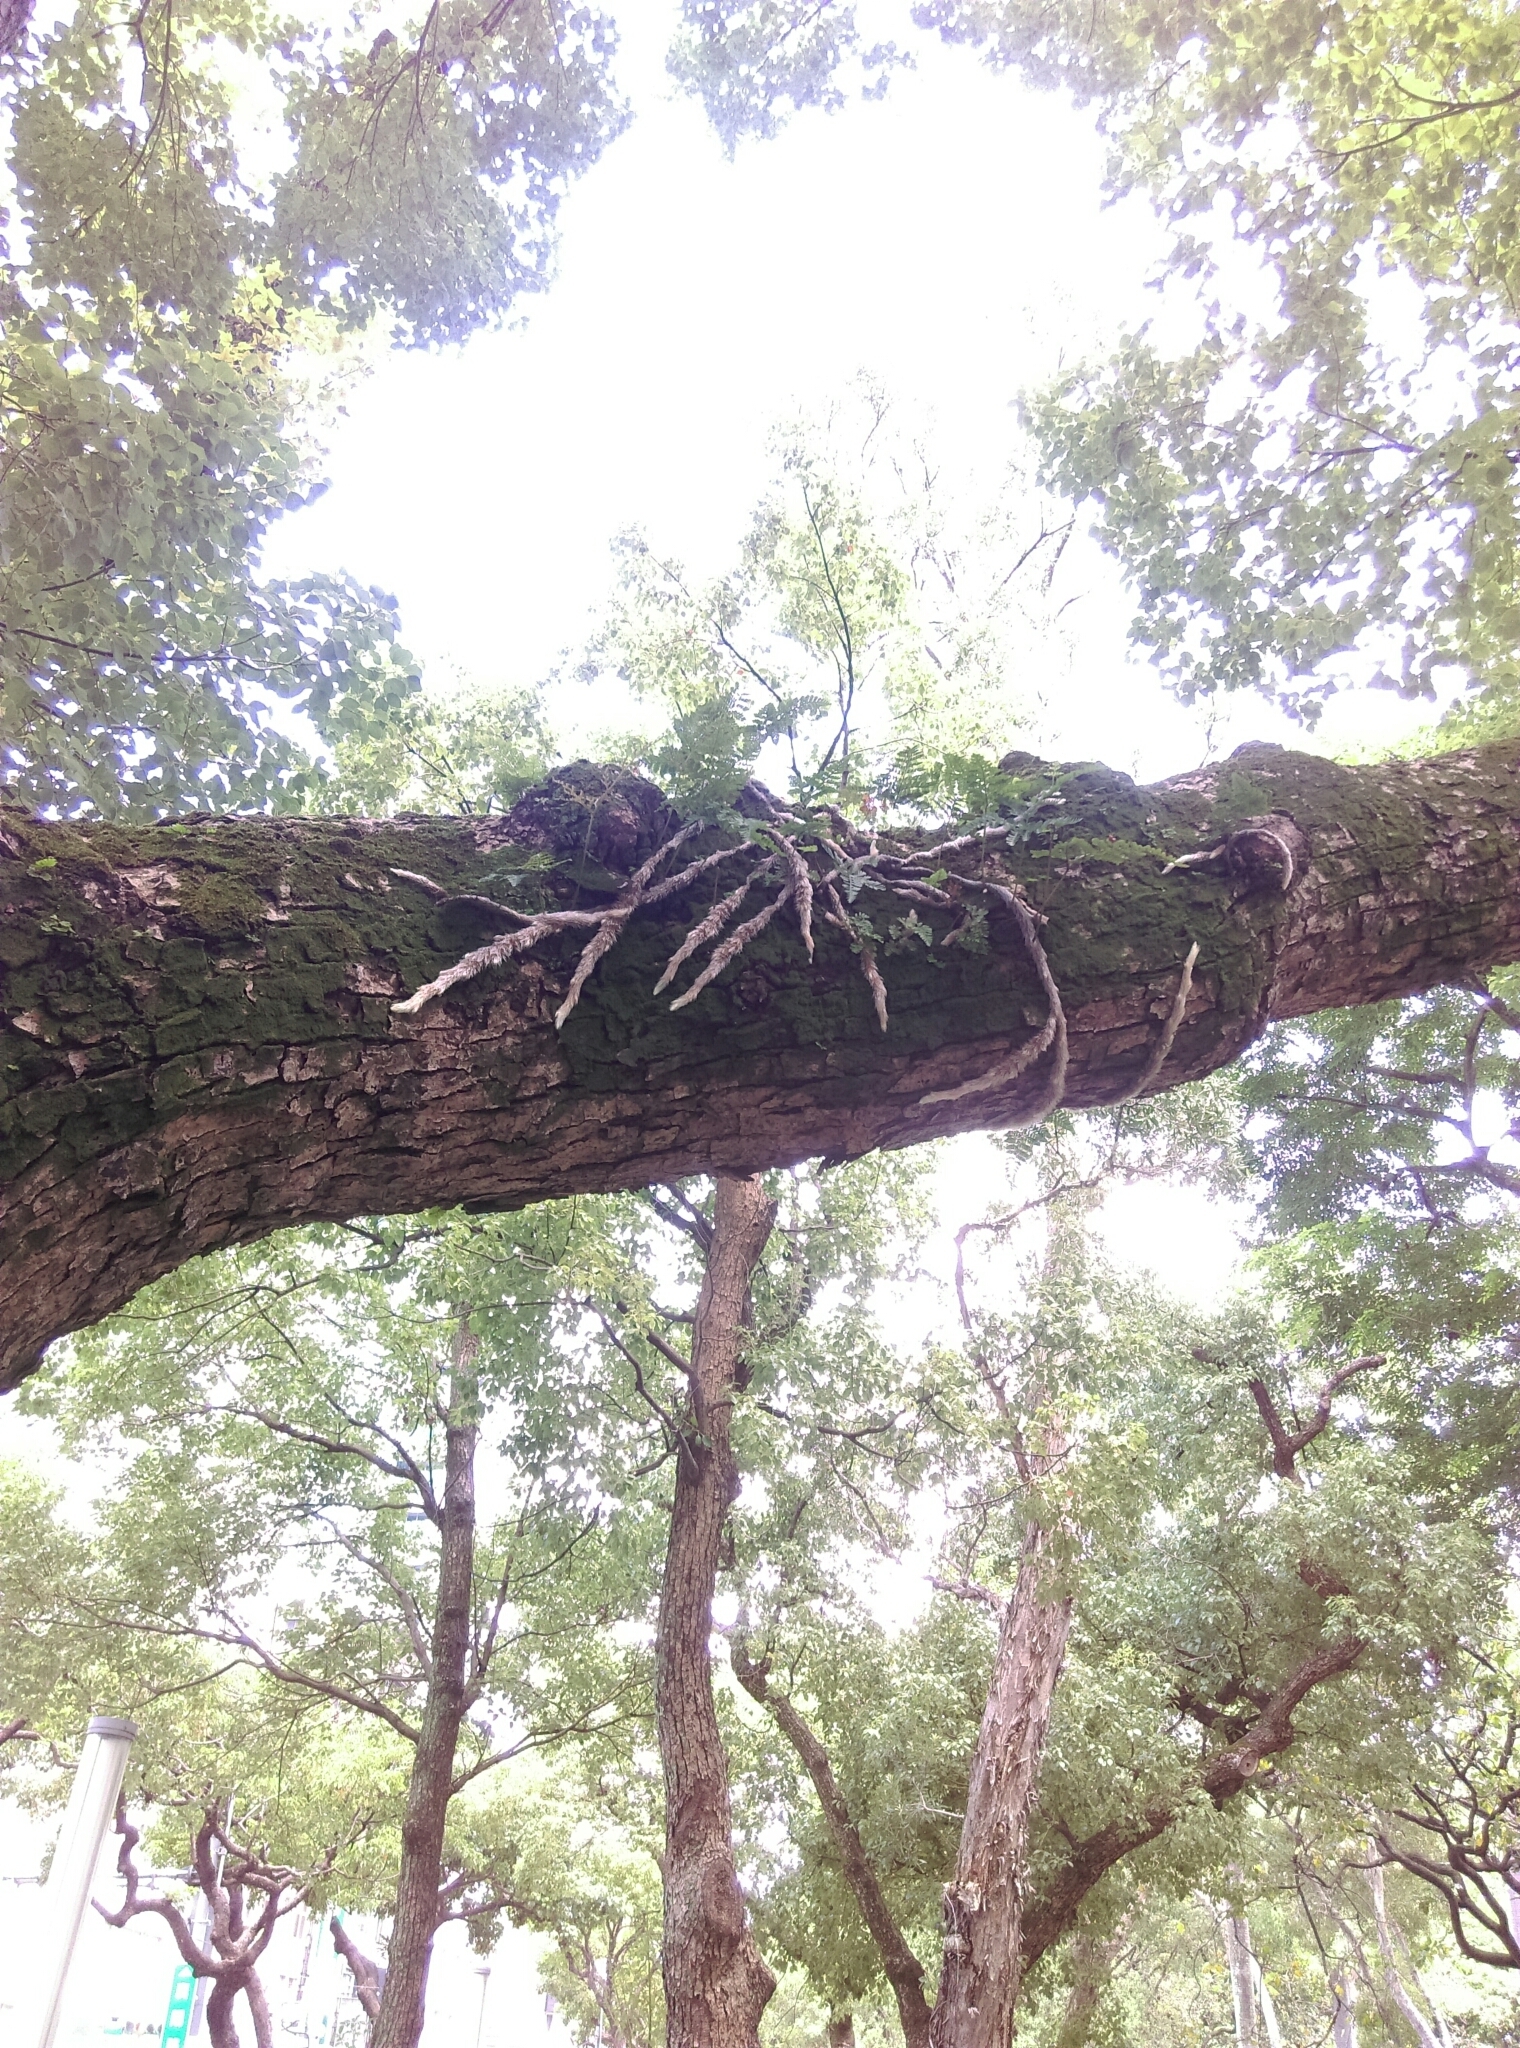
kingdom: Plantae
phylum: Tracheophyta
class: Polypodiopsida
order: Polypodiales
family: Davalliaceae
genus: Davallia
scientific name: Davallia griffithiana
